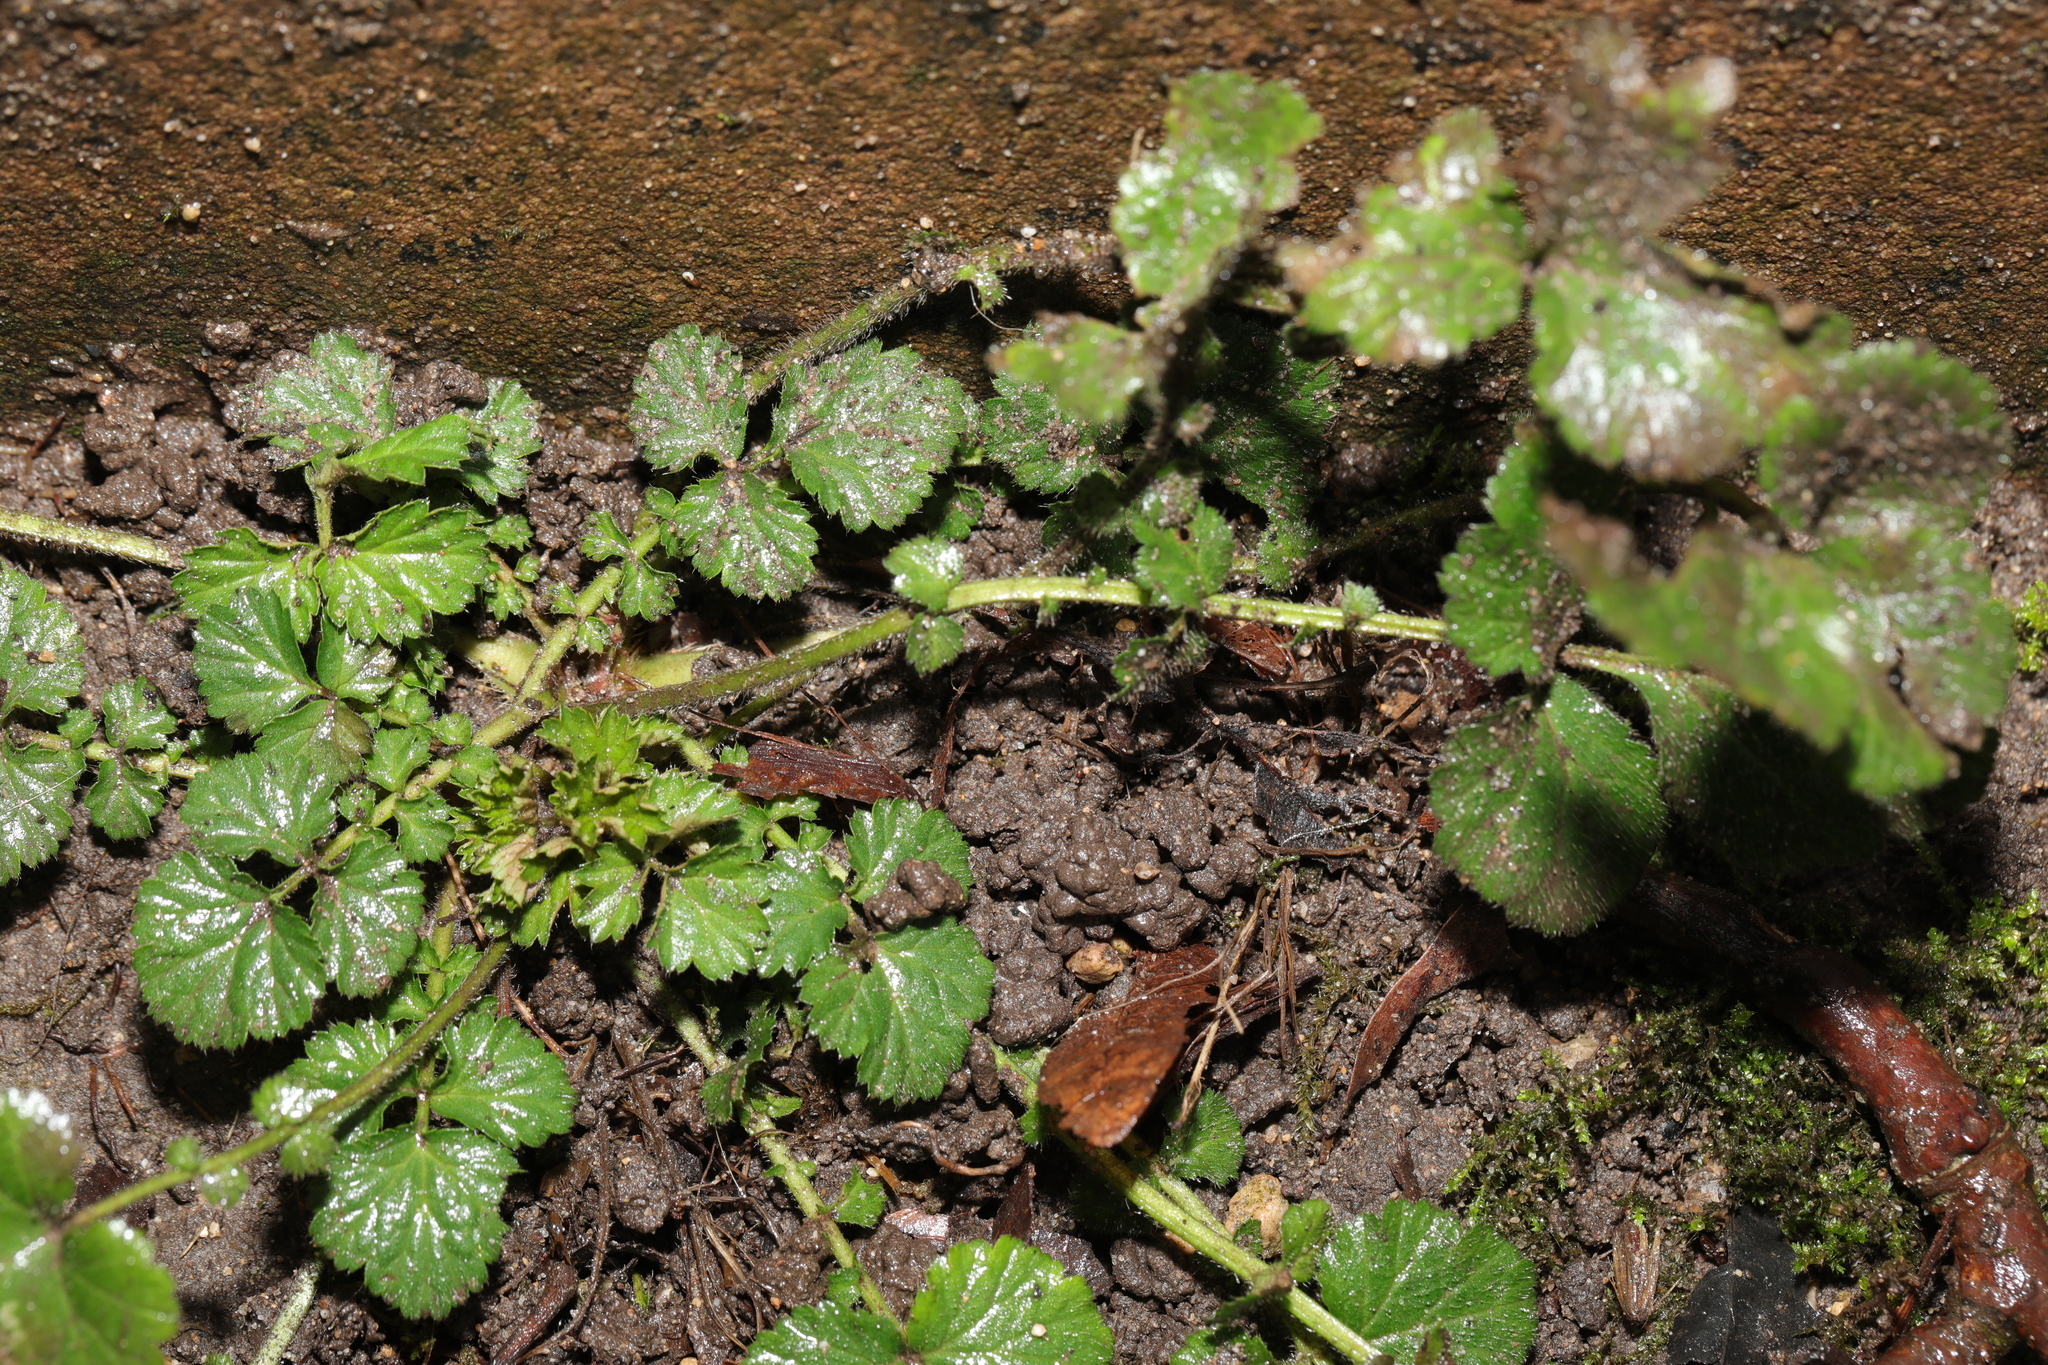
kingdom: Plantae
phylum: Tracheophyta
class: Magnoliopsida
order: Rosales
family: Rosaceae
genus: Geum
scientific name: Geum urbanum
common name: Wood avens
